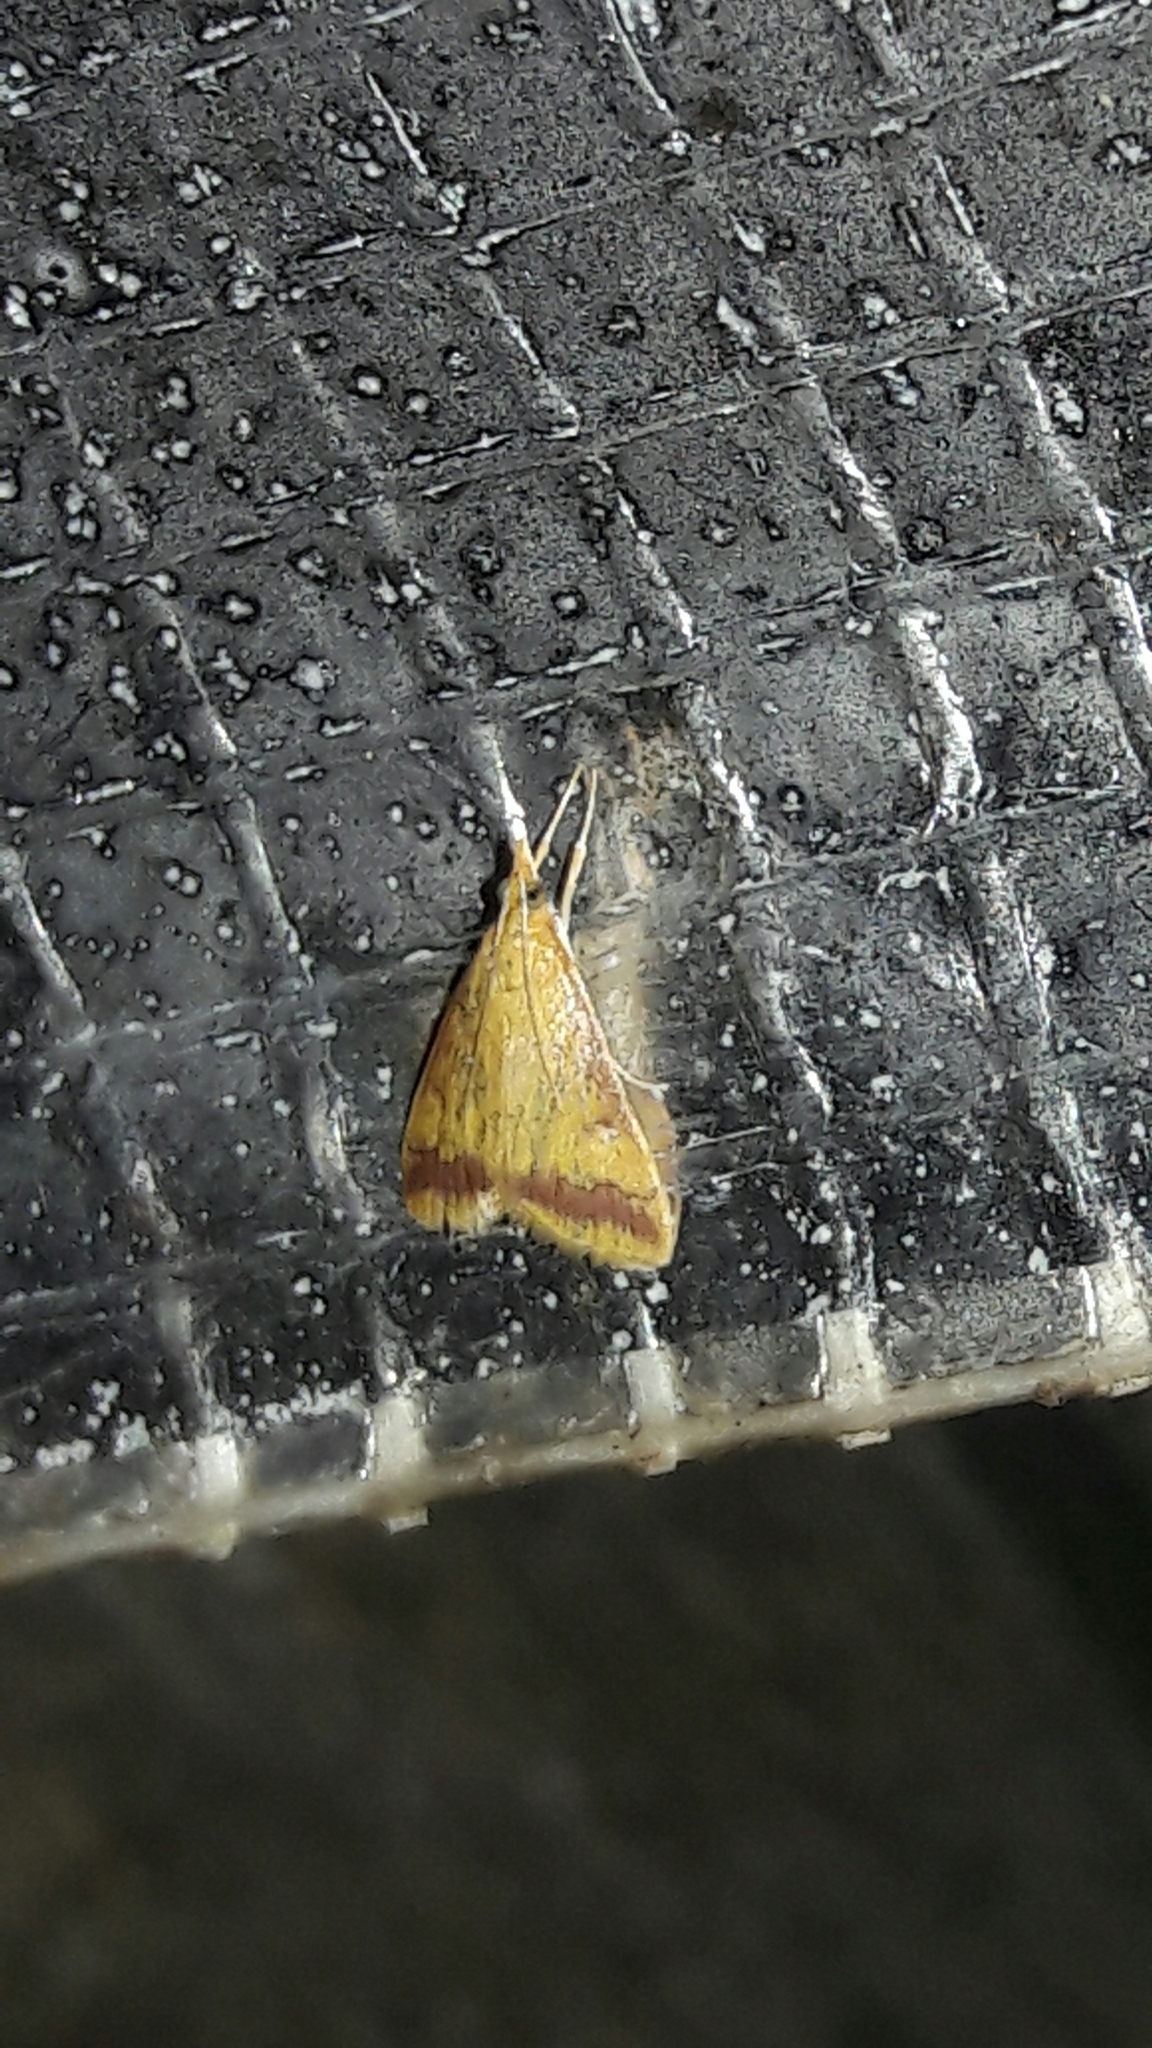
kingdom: Animalia
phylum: Arthropoda
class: Insecta
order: Lepidoptera
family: Crambidae
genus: Hyalorista
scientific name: Hyalorista taeniolalis
